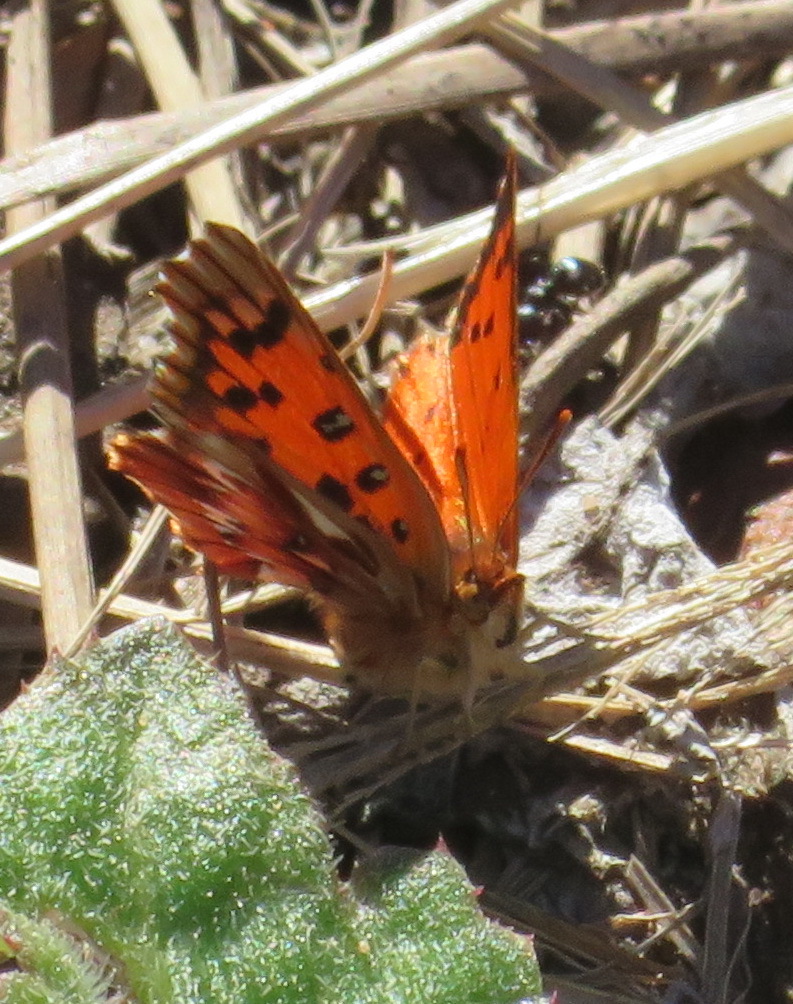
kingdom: Animalia
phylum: Arthropoda
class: Insecta
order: Lepidoptera
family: Lycaenidae
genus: Chrysoritis
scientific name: Chrysoritis
